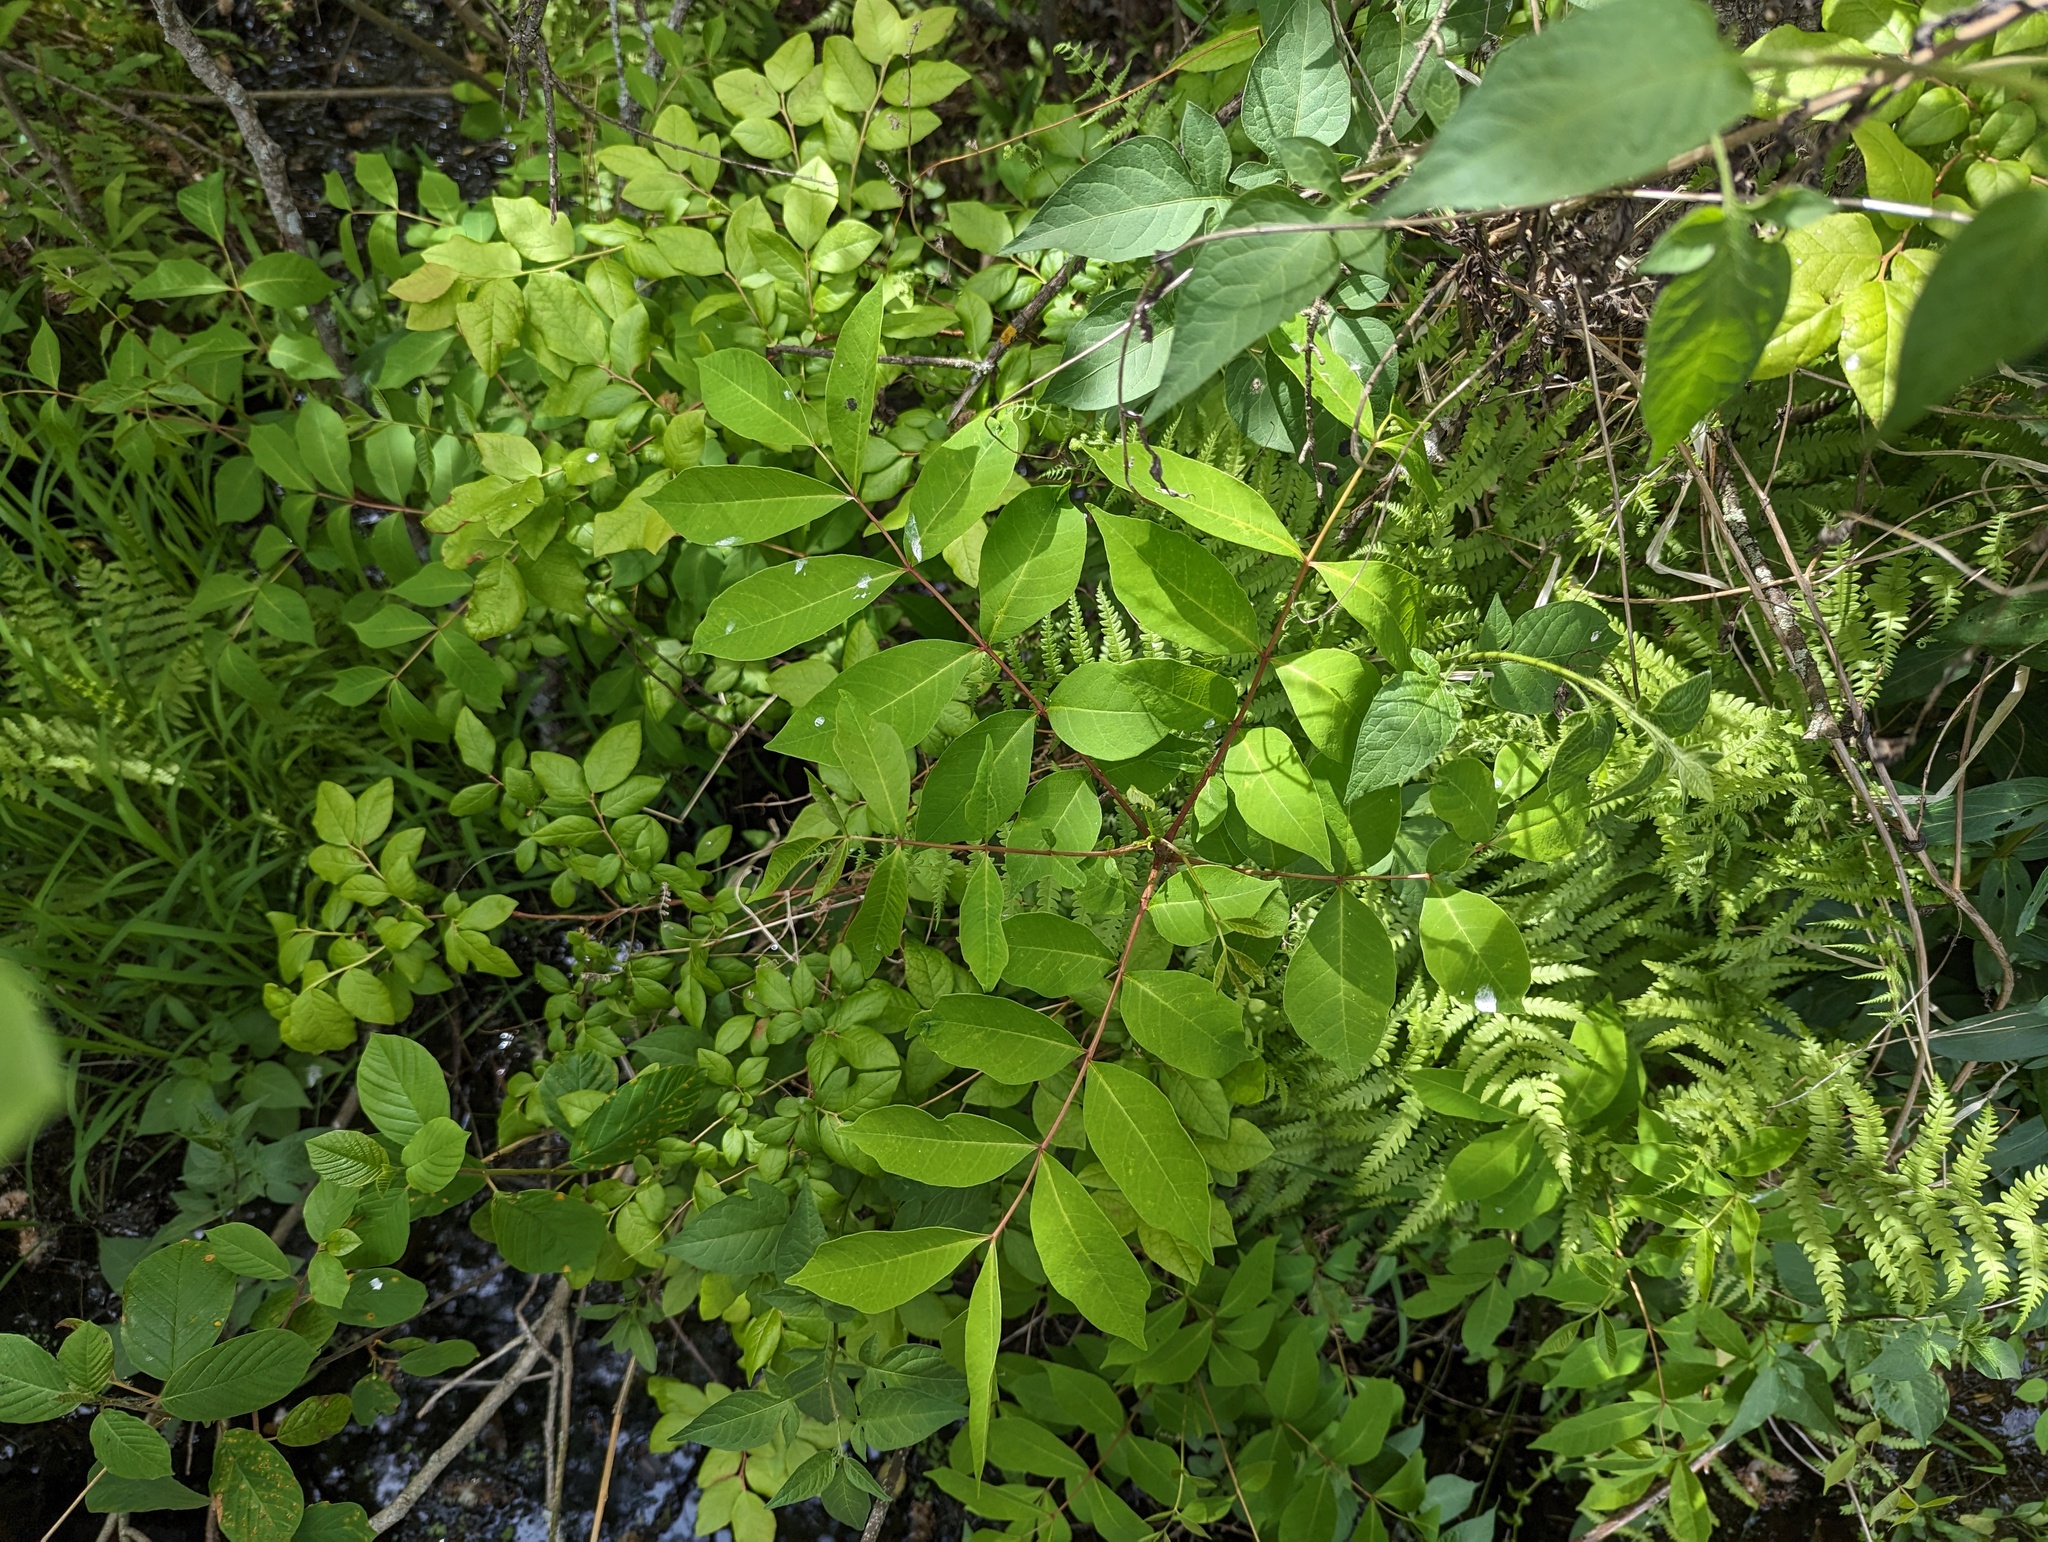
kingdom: Plantae
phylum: Tracheophyta
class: Magnoliopsida
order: Sapindales
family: Anacardiaceae
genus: Toxicodendron
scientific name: Toxicodendron vernix
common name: Poison sumac
